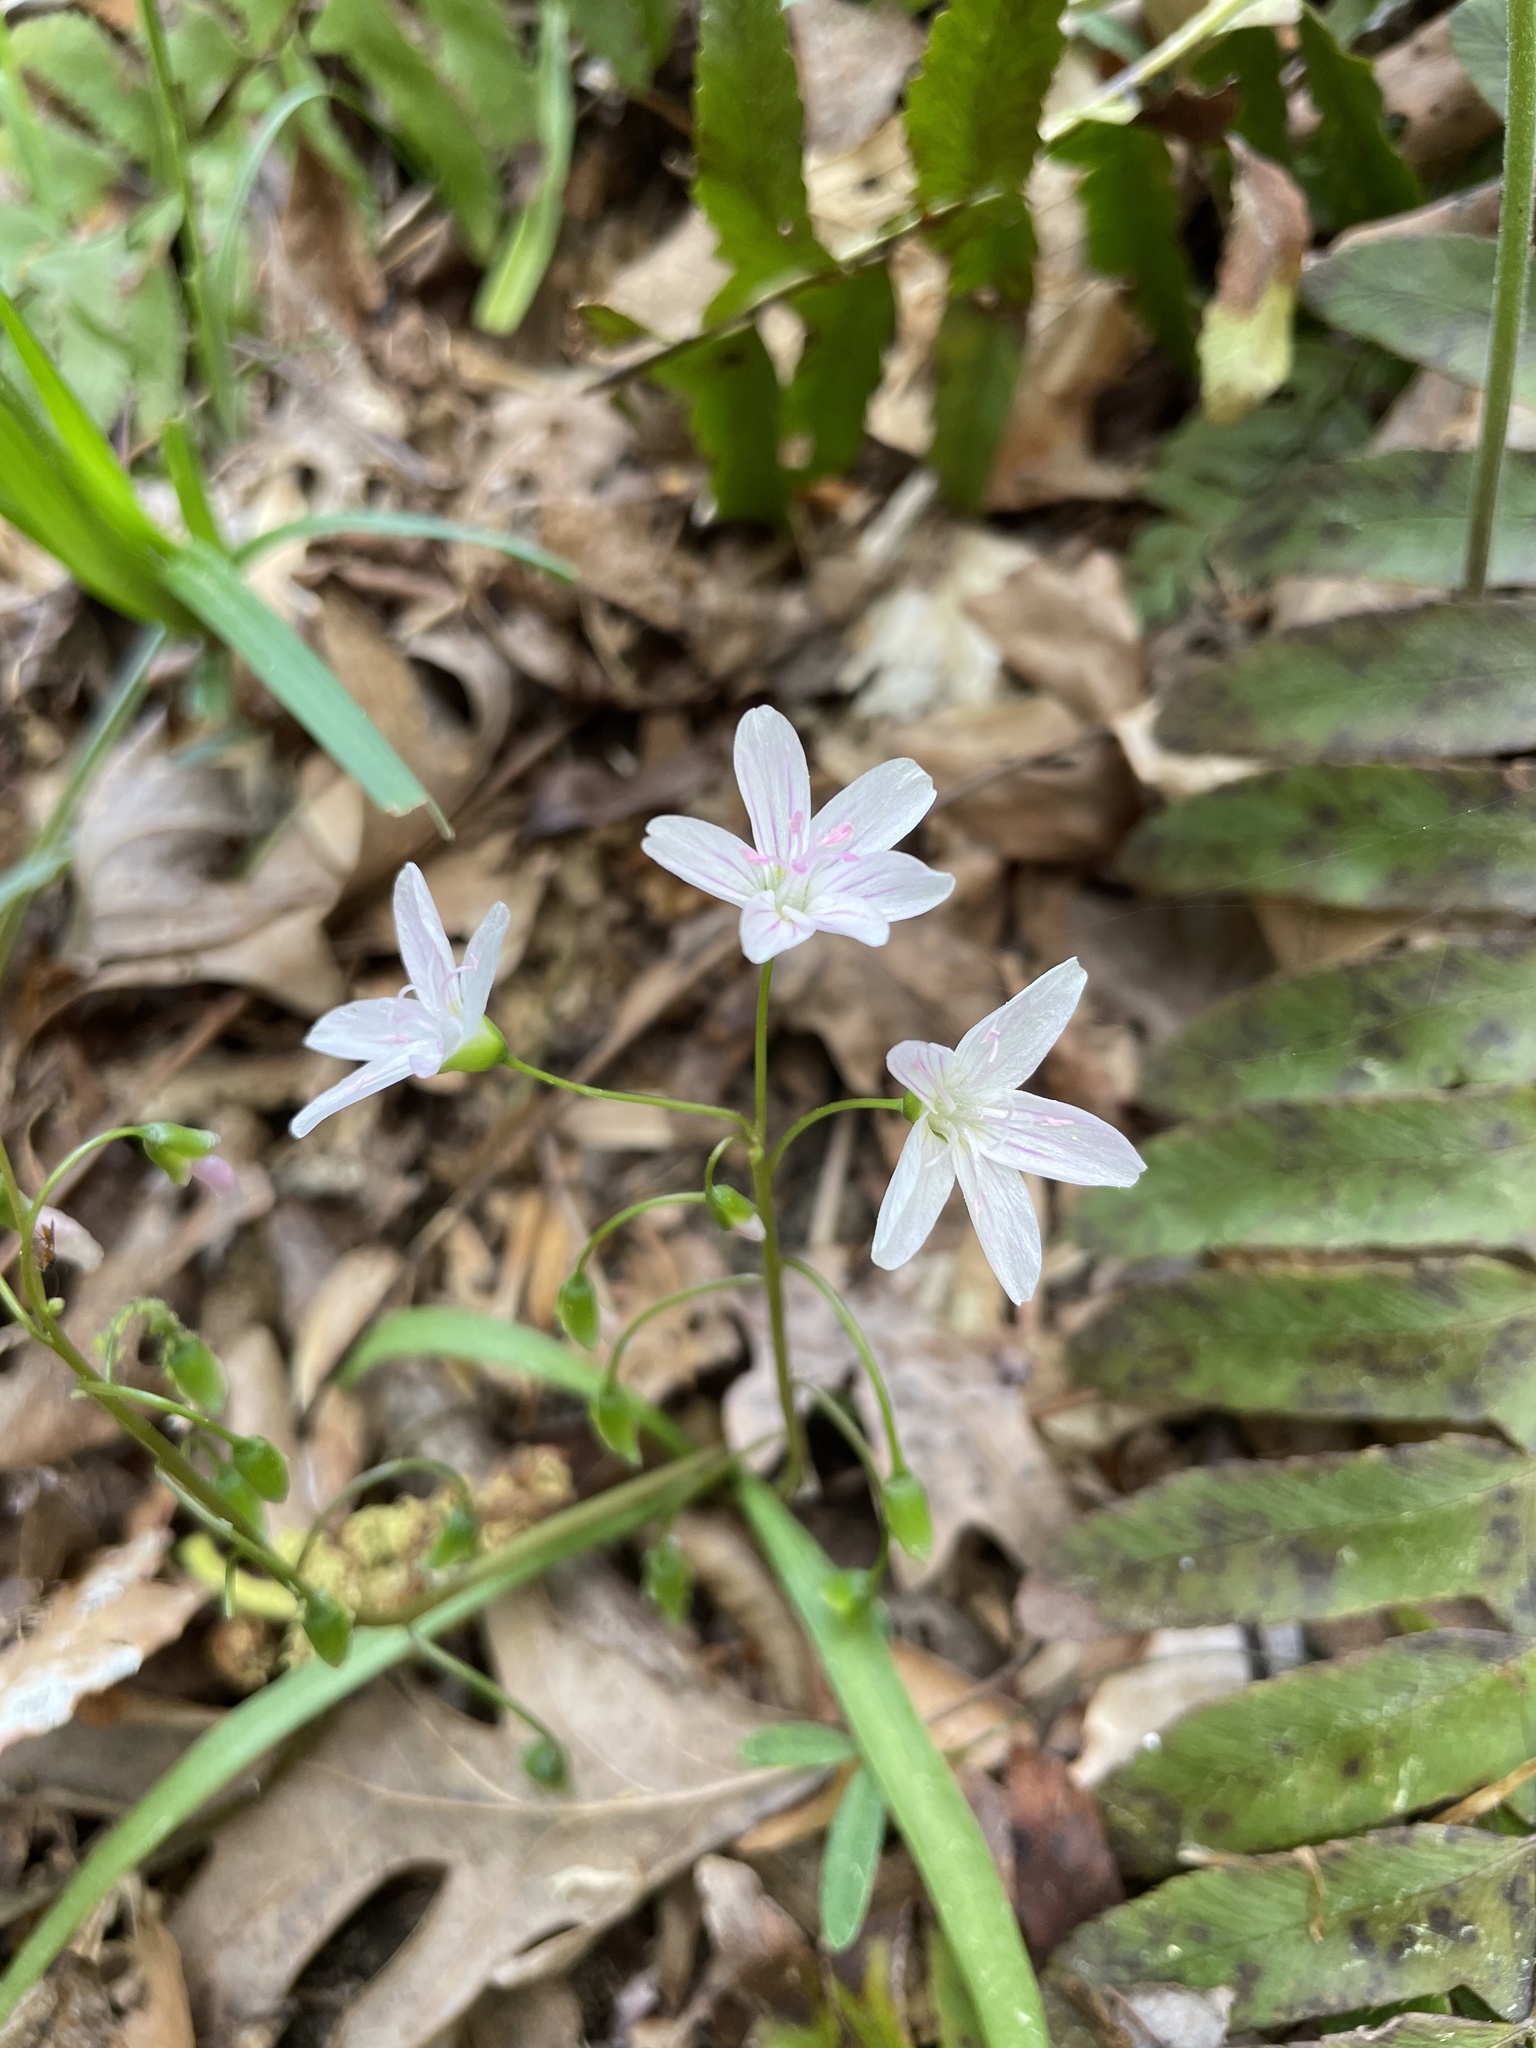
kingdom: Plantae
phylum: Tracheophyta
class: Magnoliopsida
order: Caryophyllales
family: Montiaceae
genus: Claytonia
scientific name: Claytonia virginica
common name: Virginia springbeauty
